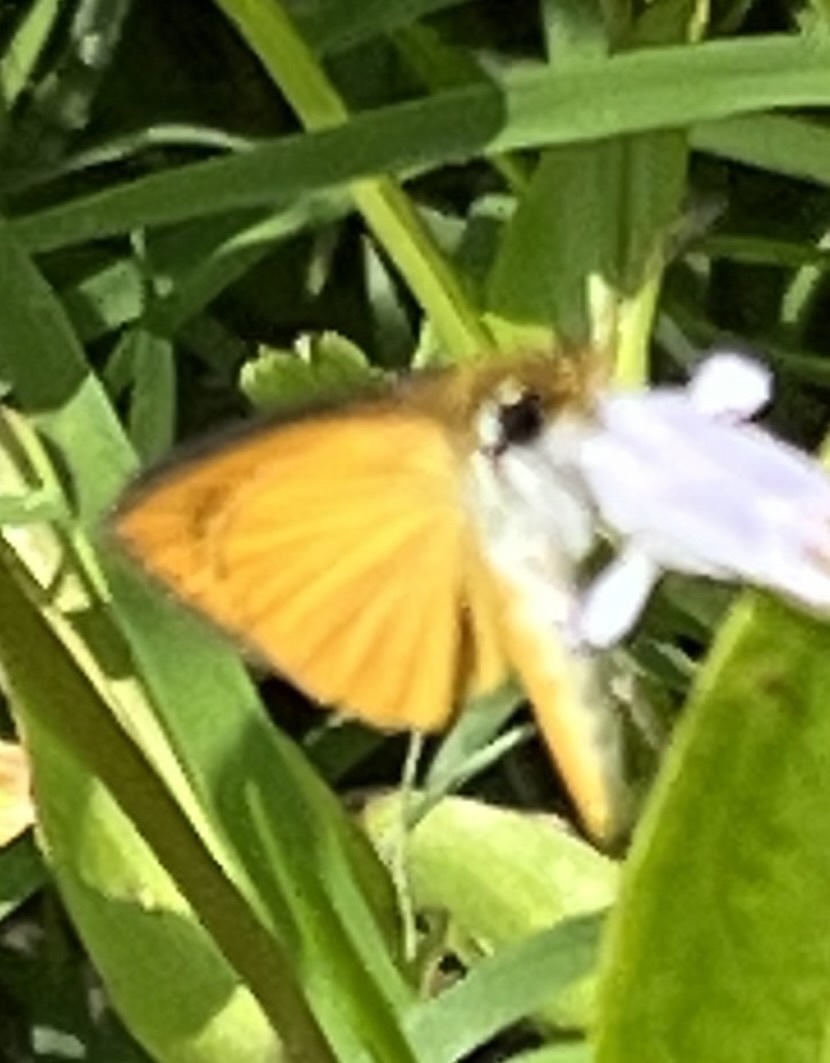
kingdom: Animalia
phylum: Arthropoda
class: Insecta
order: Lepidoptera
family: Hesperiidae
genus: Ancyloxypha
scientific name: Ancyloxypha numitor
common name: Least skipper
